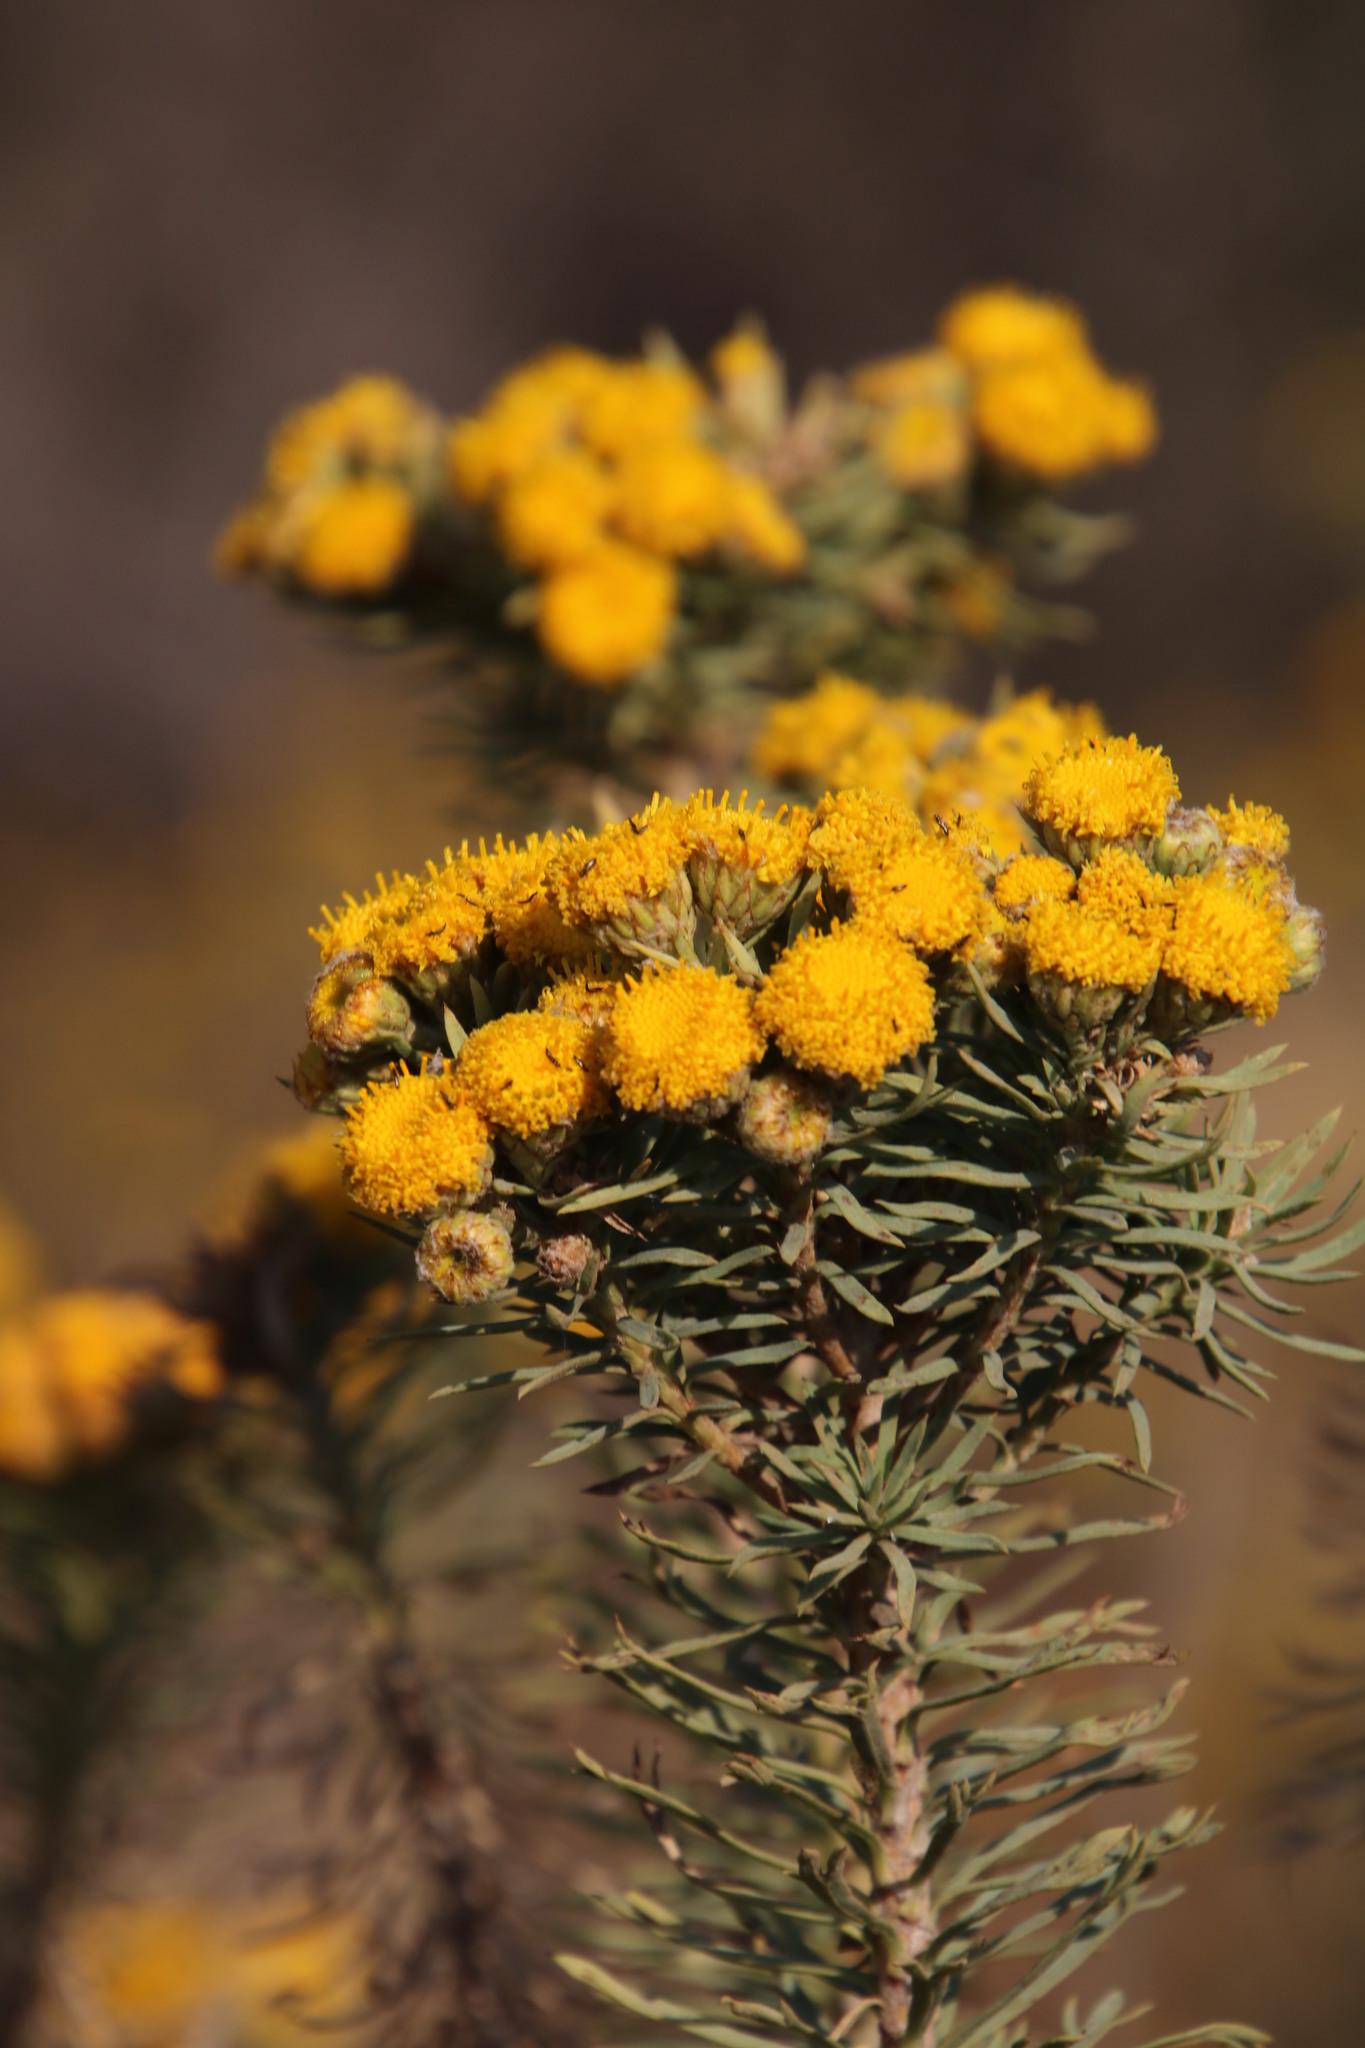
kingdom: Plantae
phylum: Tracheophyta
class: Magnoliopsida
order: Asterales
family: Asteraceae
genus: Phymaspermum
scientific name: Phymaspermum athanasioides
